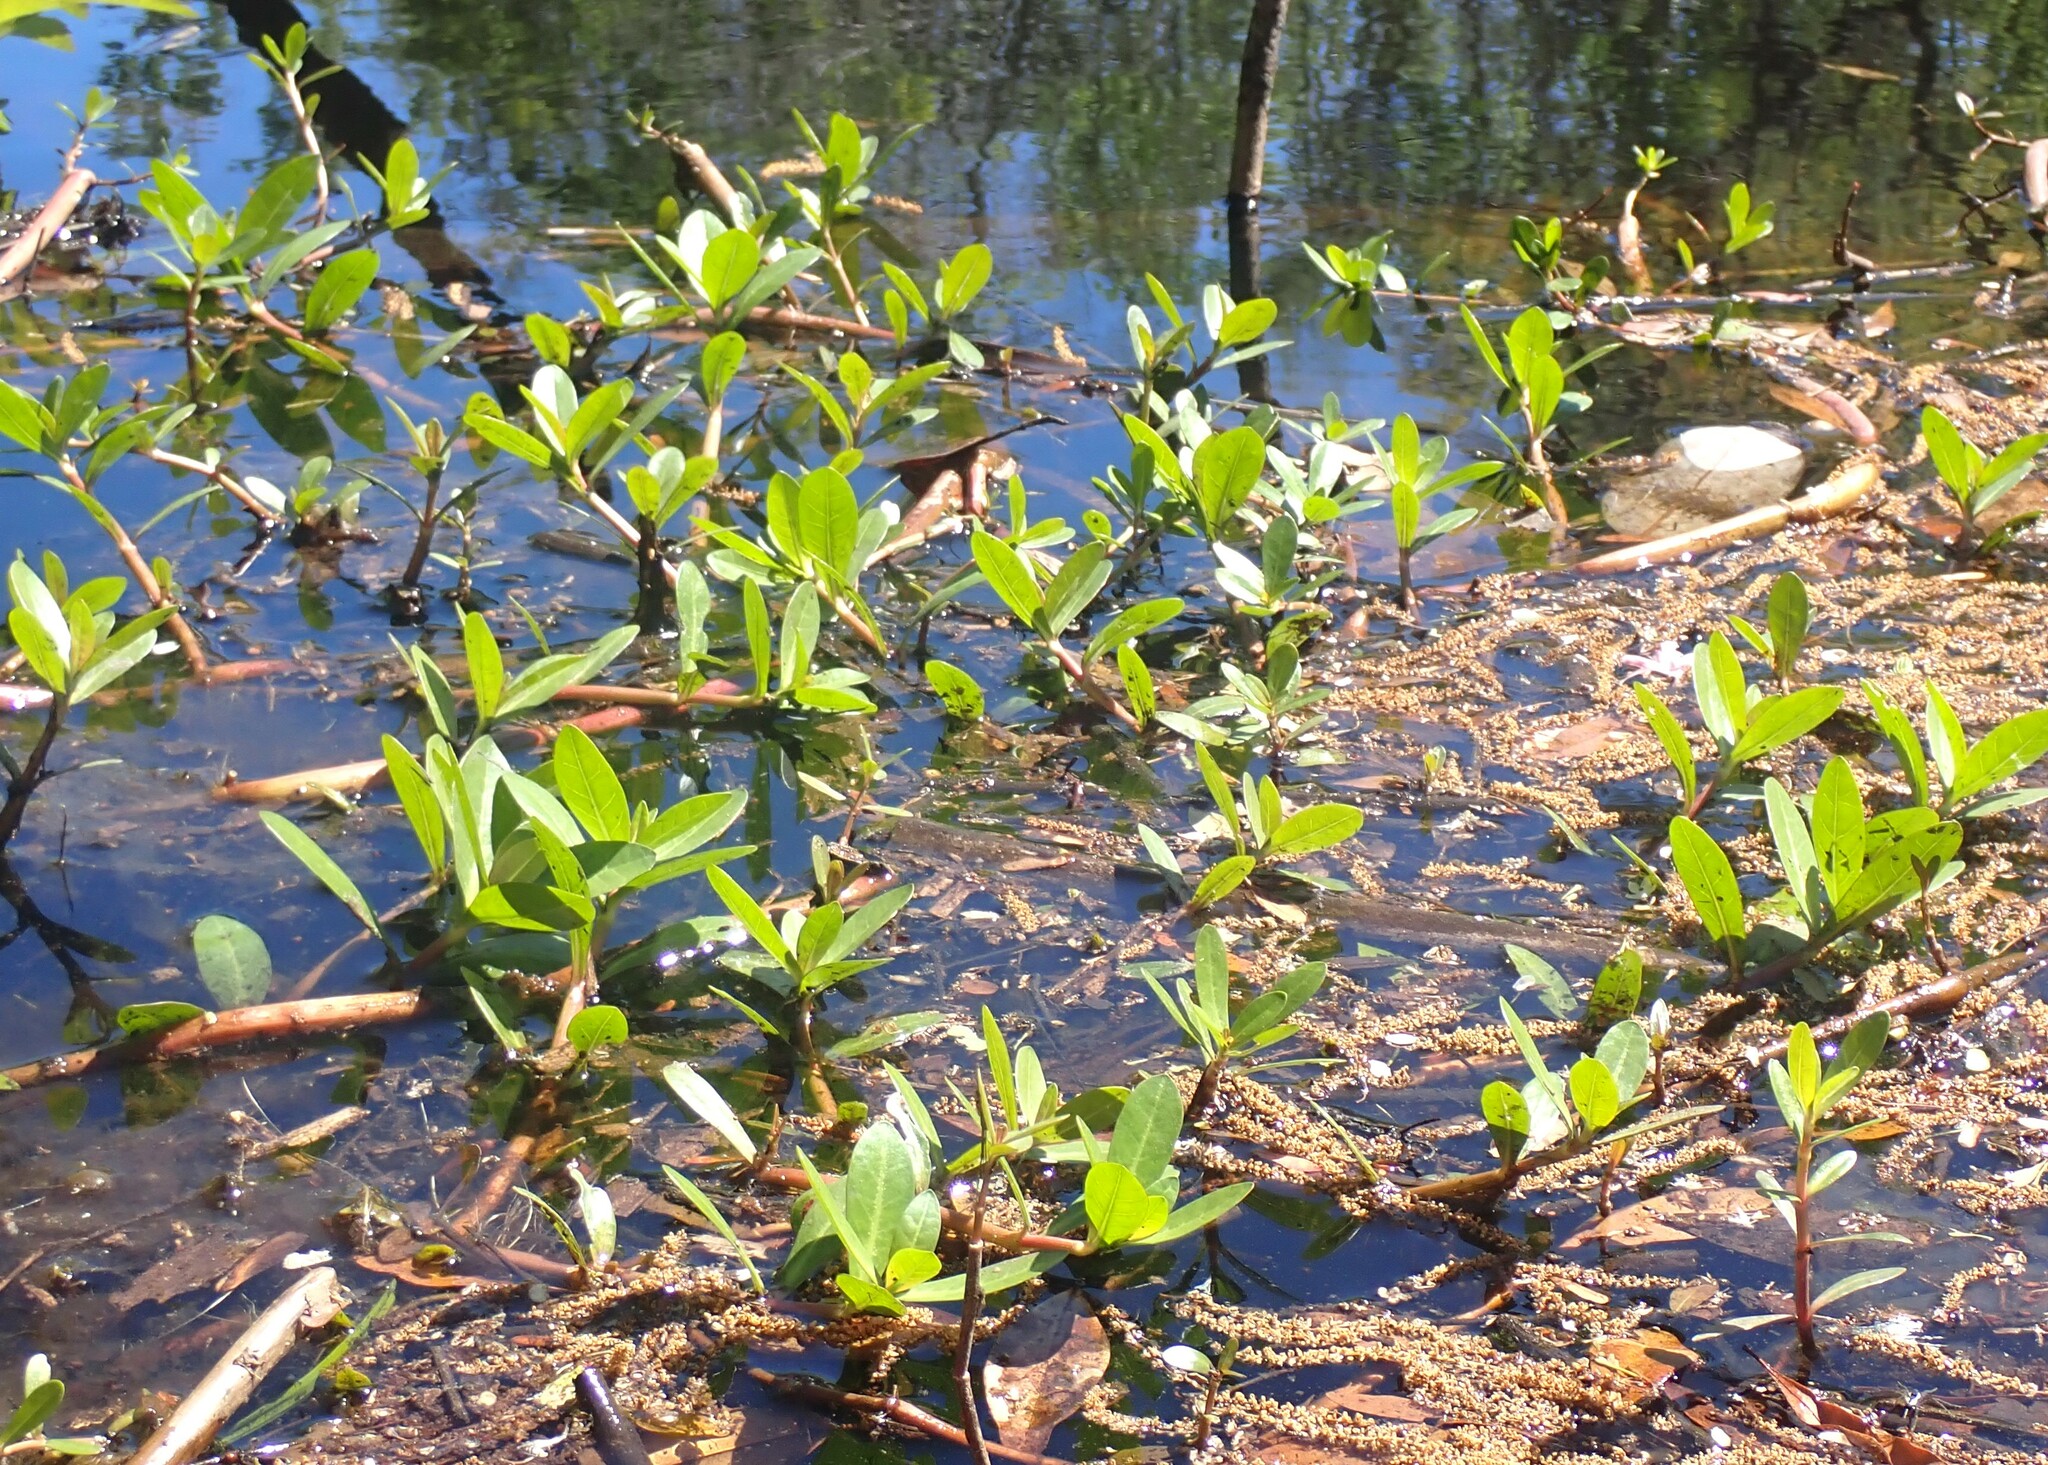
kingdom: Plantae
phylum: Tracheophyta
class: Magnoliopsida
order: Caryophyllales
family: Amaranthaceae
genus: Alternanthera
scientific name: Alternanthera philoxeroides
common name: Alligatorweed
